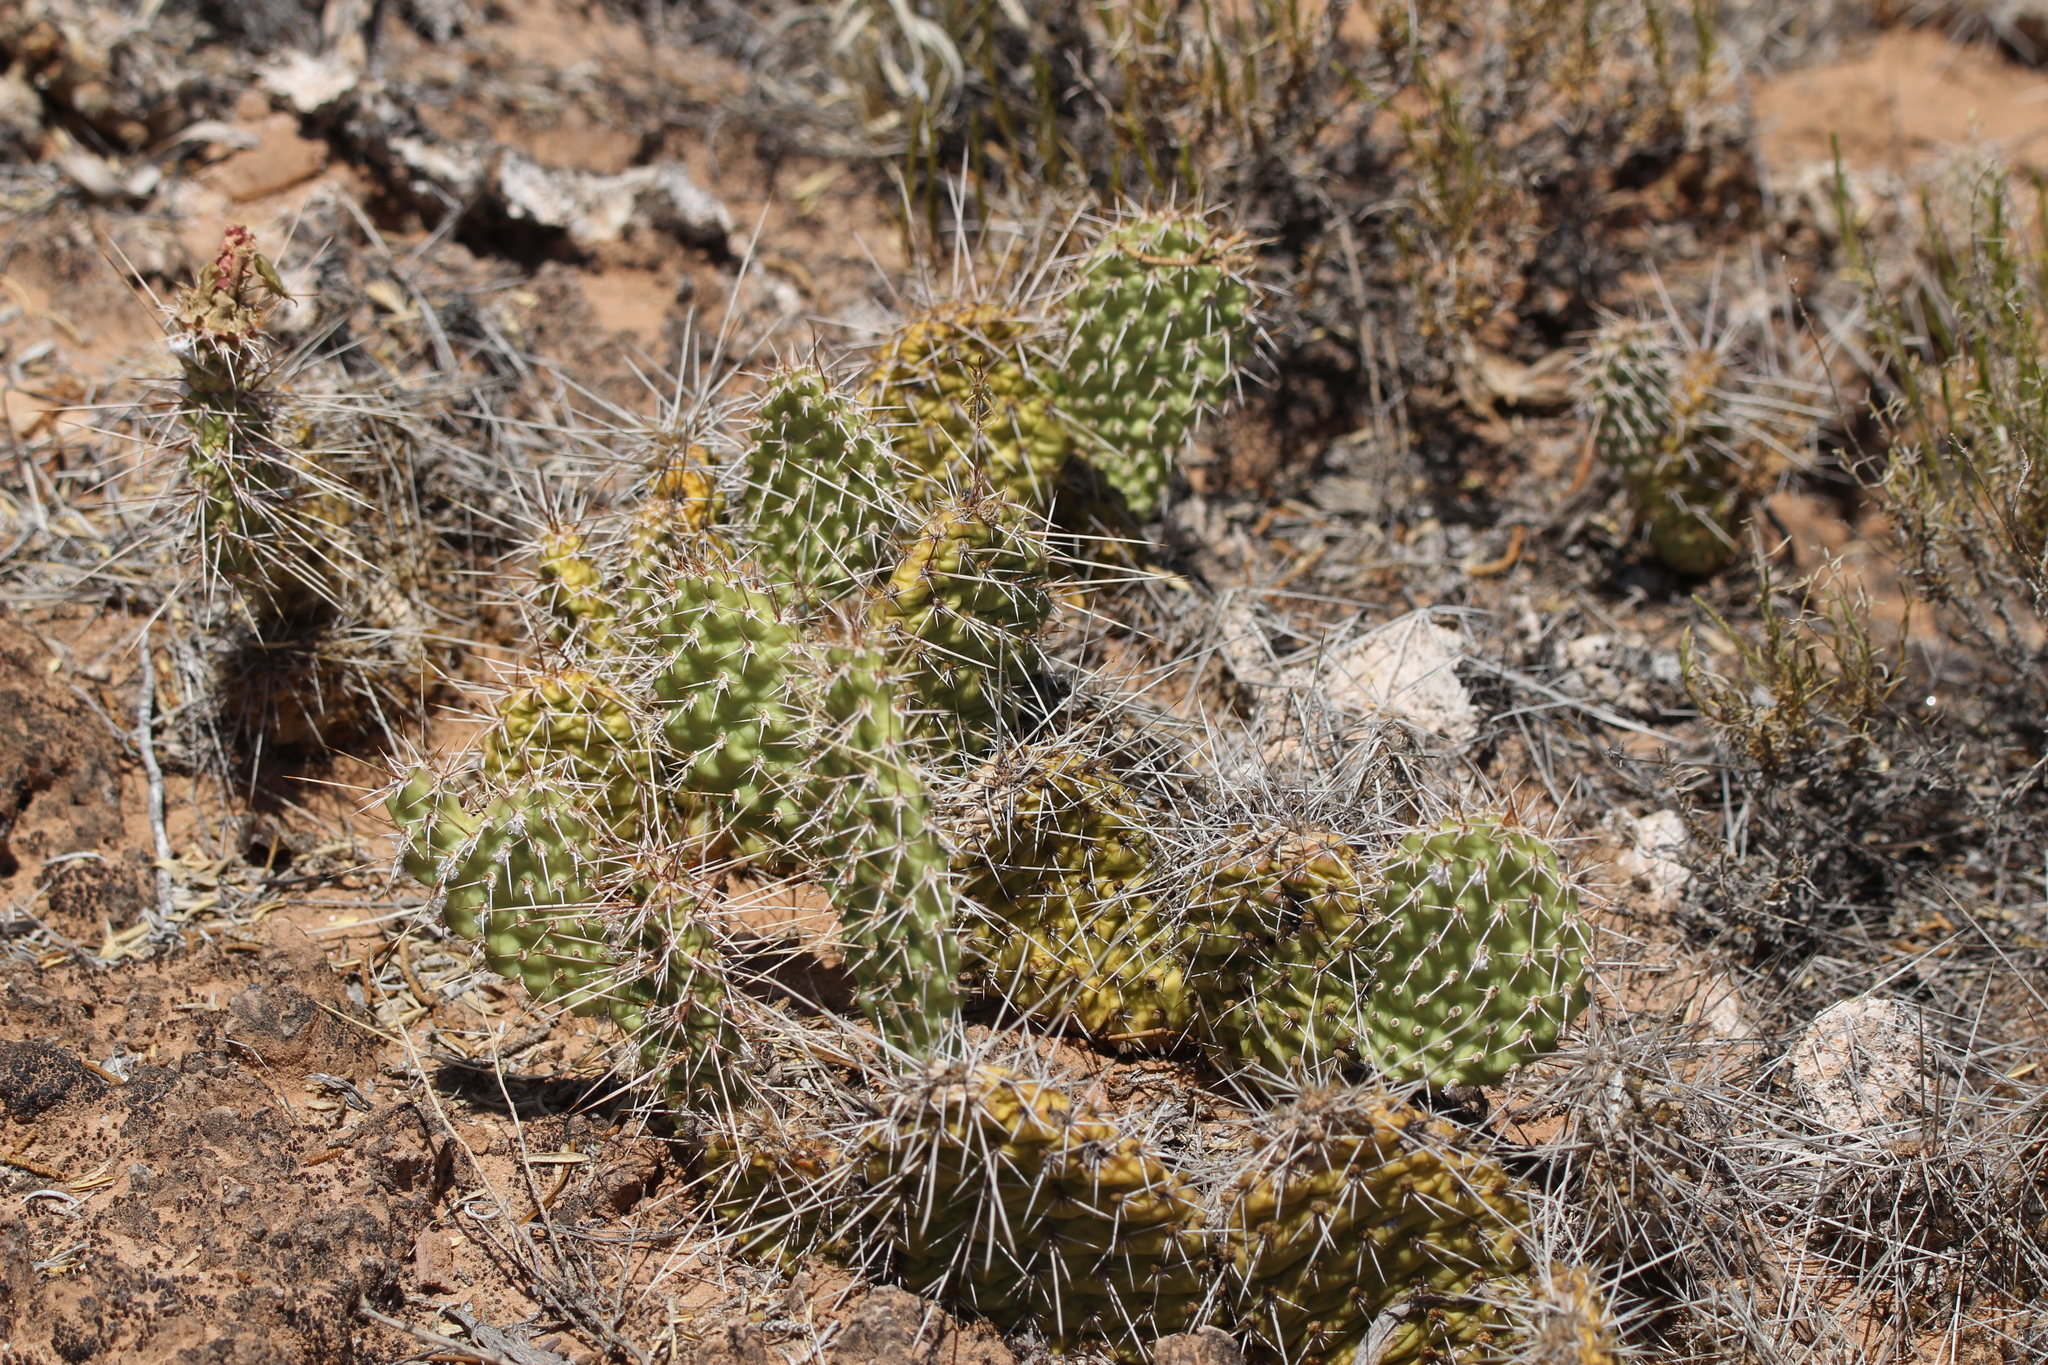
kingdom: Plantae
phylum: Tracheophyta
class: Magnoliopsida
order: Caryophyllales
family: Cactaceae
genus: Opuntia
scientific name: Opuntia polyacantha
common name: Plains prickly-pear
